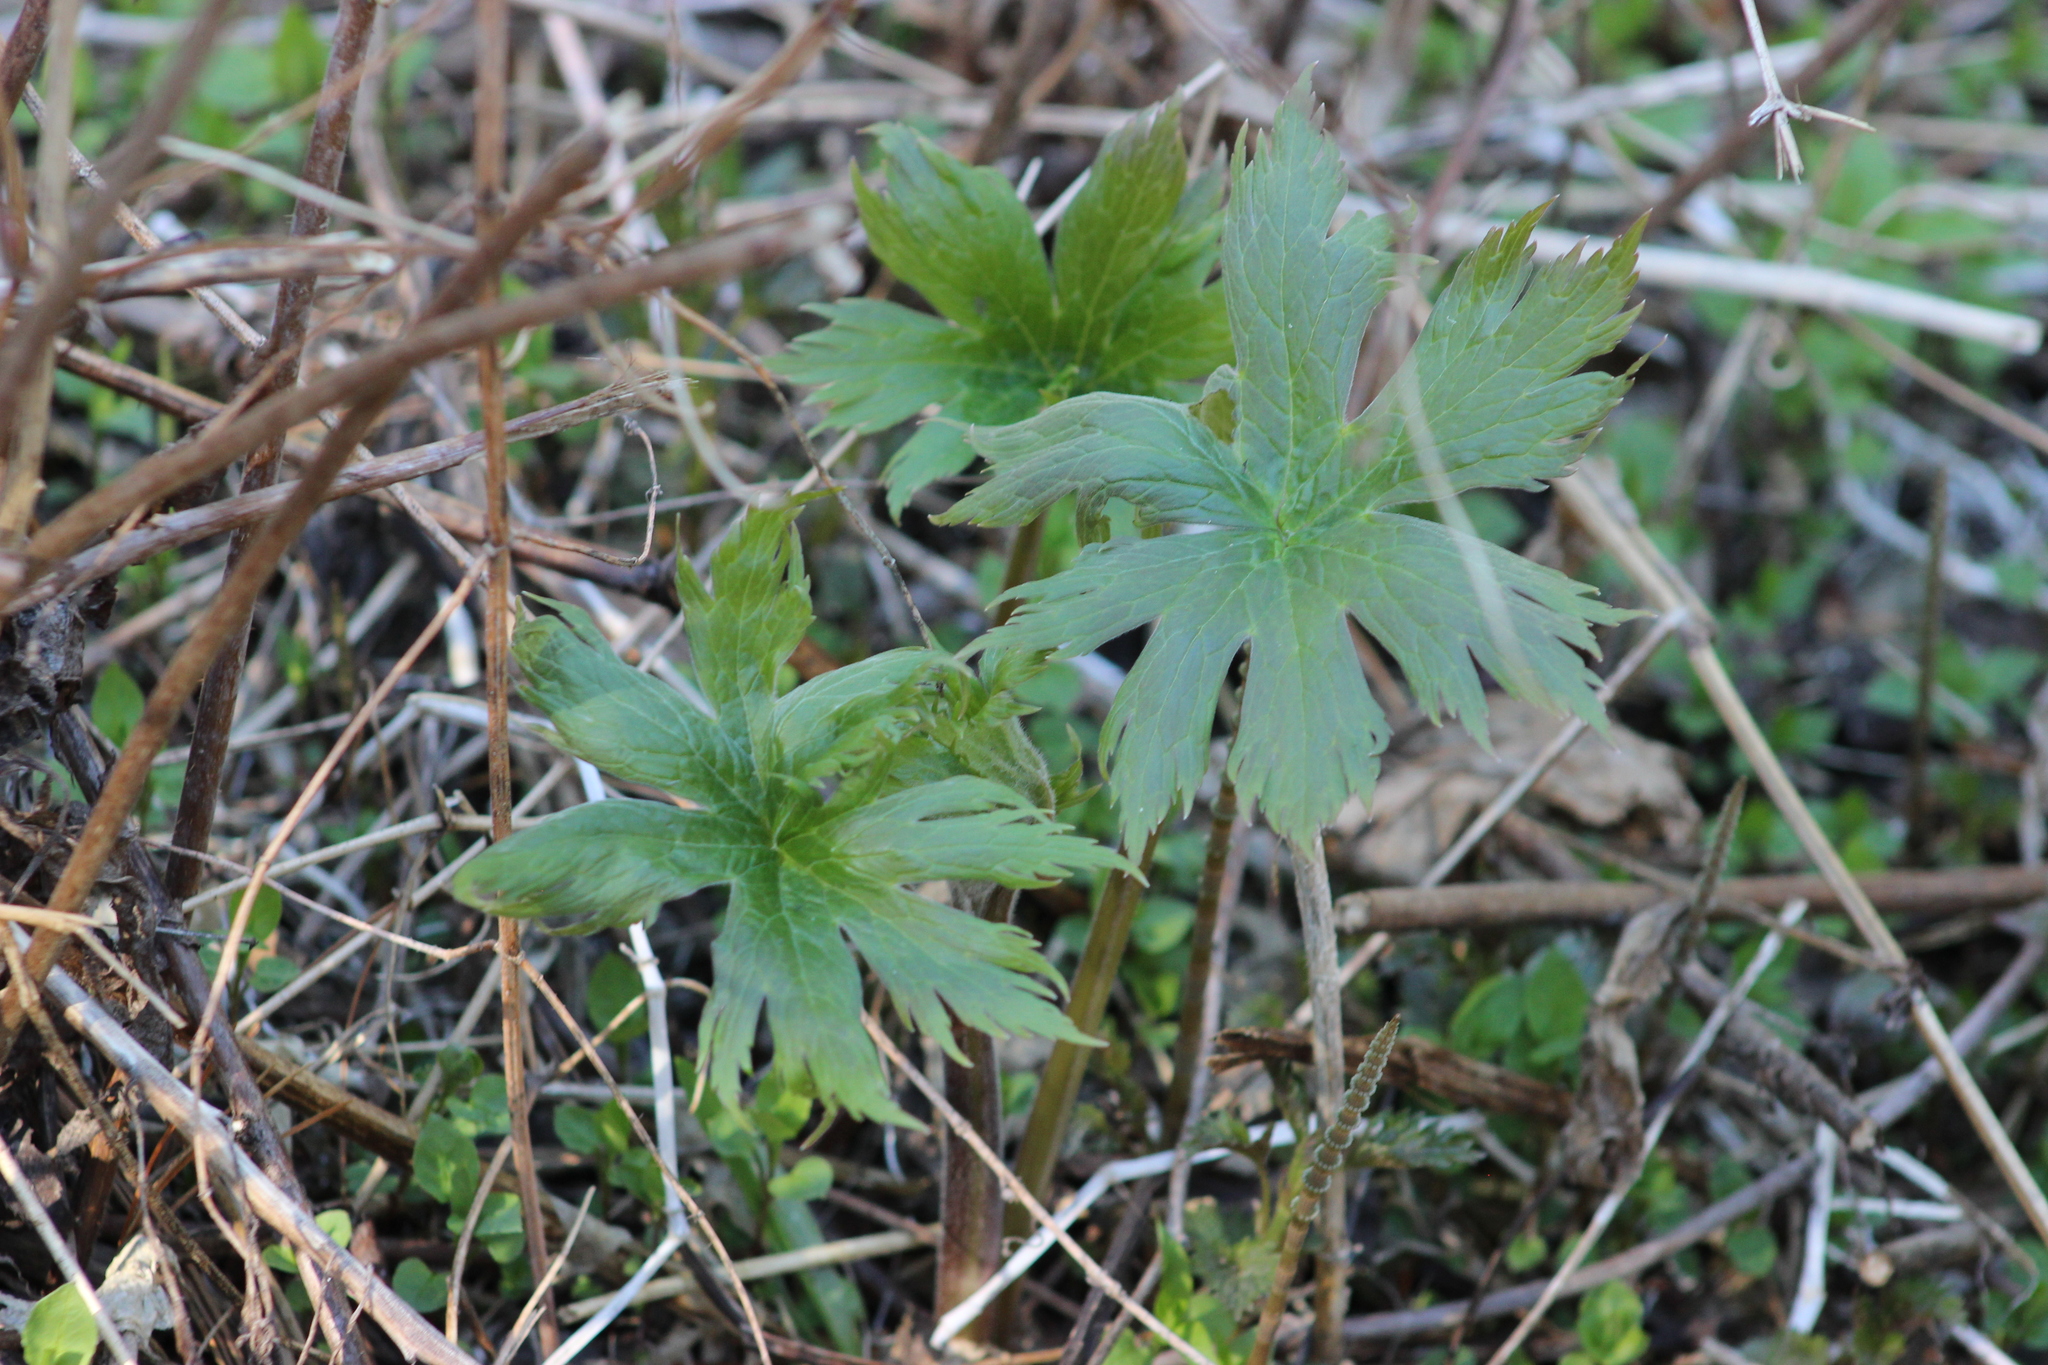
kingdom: Plantae
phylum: Tracheophyta
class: Magnoliopsida
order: Ranunculales
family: Ranunculaceae
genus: Aconitum
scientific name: Aconitum septentrionale
